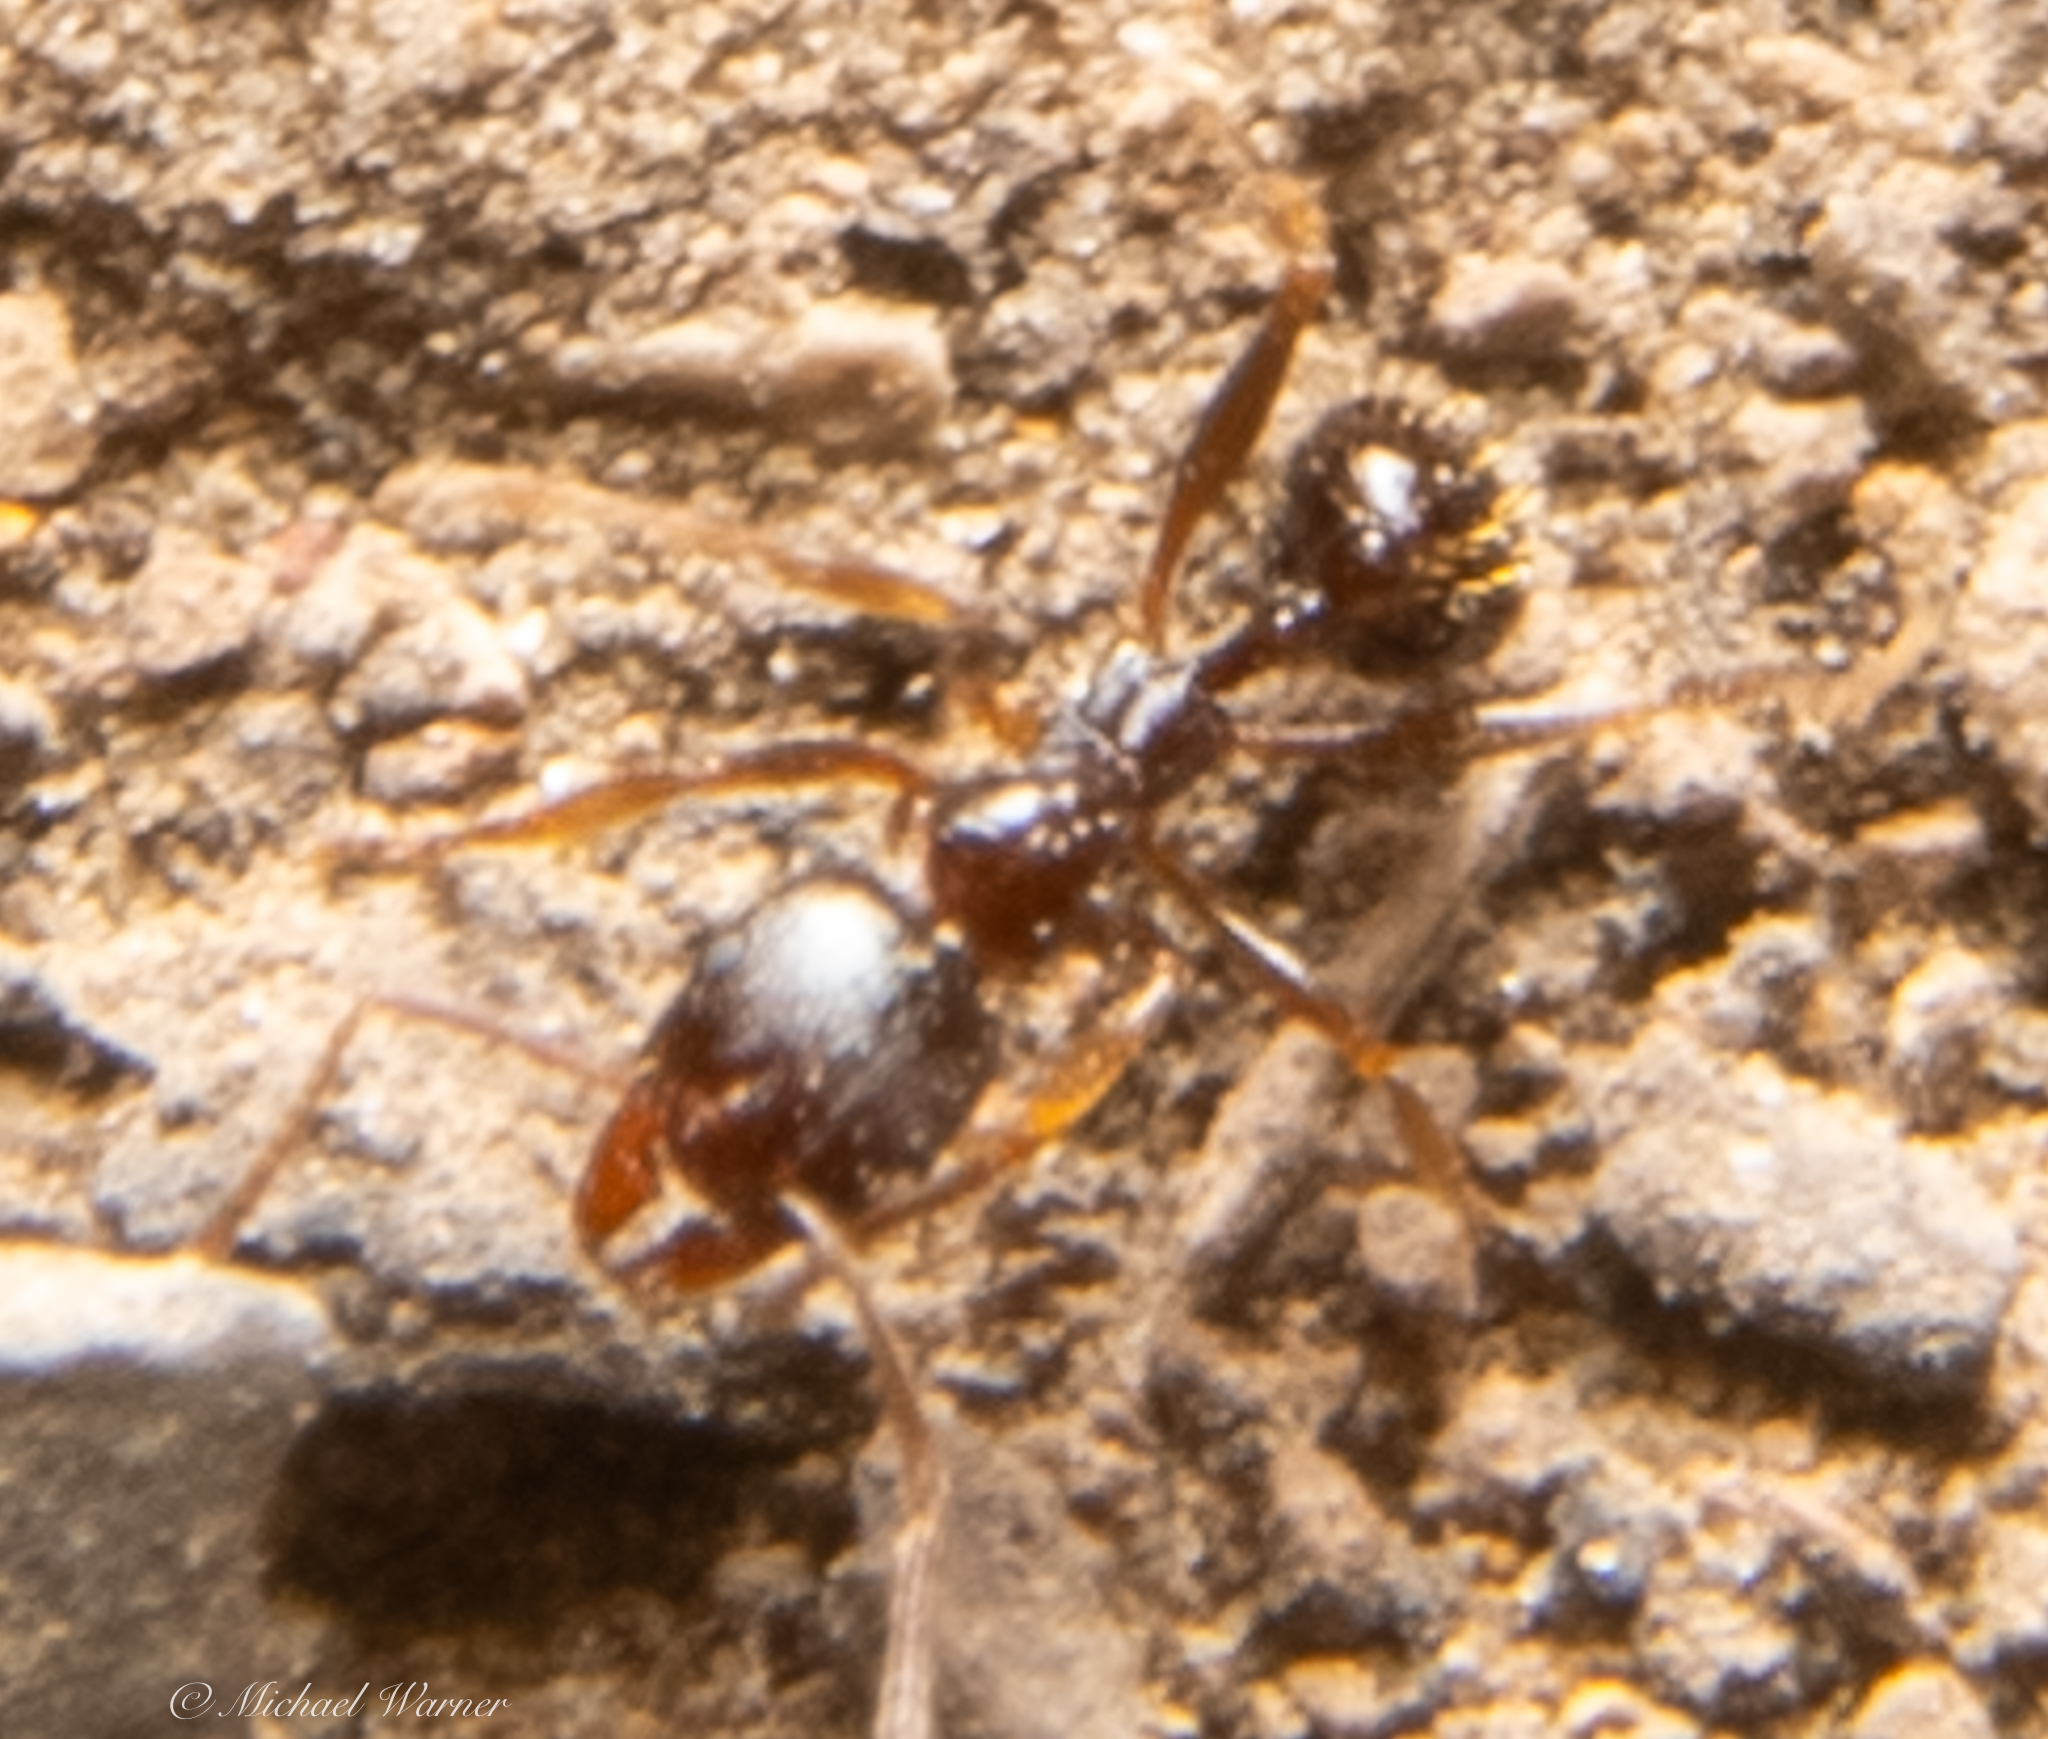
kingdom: Animalia
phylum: Arthropoda
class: Insecta
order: Hymenoptera
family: Formicidae
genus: Aphaenogaster
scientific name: Aphaenogaster occidentalis
